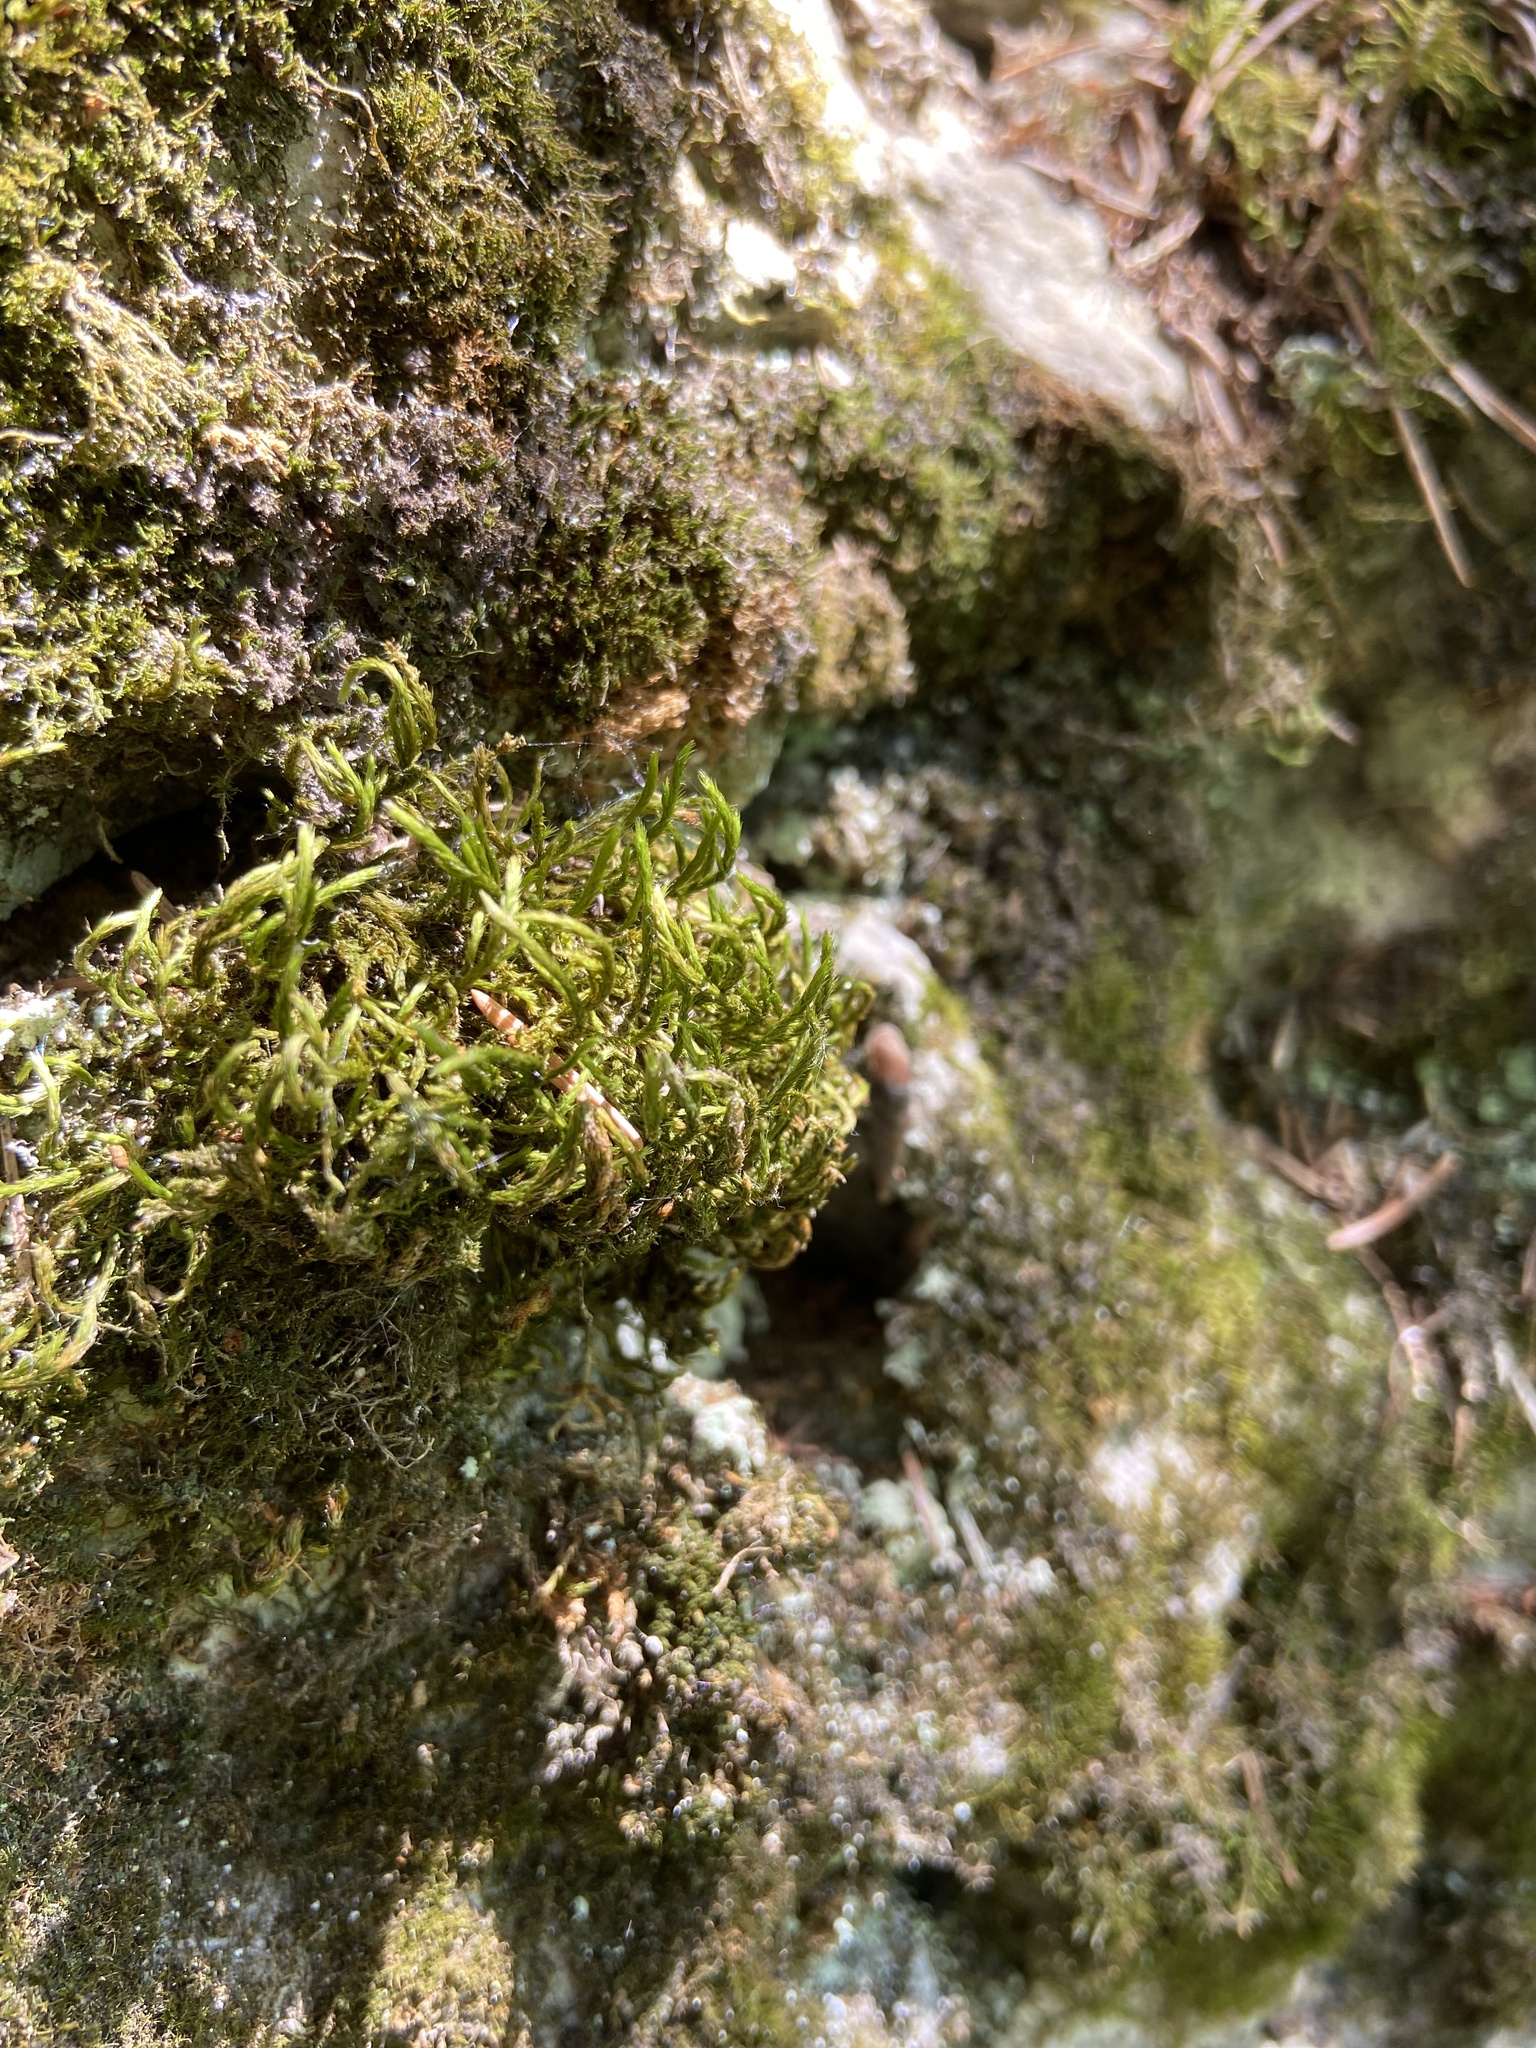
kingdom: Plantae
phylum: Bryophyta
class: Bryopsida
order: Hypnales
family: Leucodontaceae
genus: Leucodon
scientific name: Leucodon sciuroides
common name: Squirrel-tail moss
